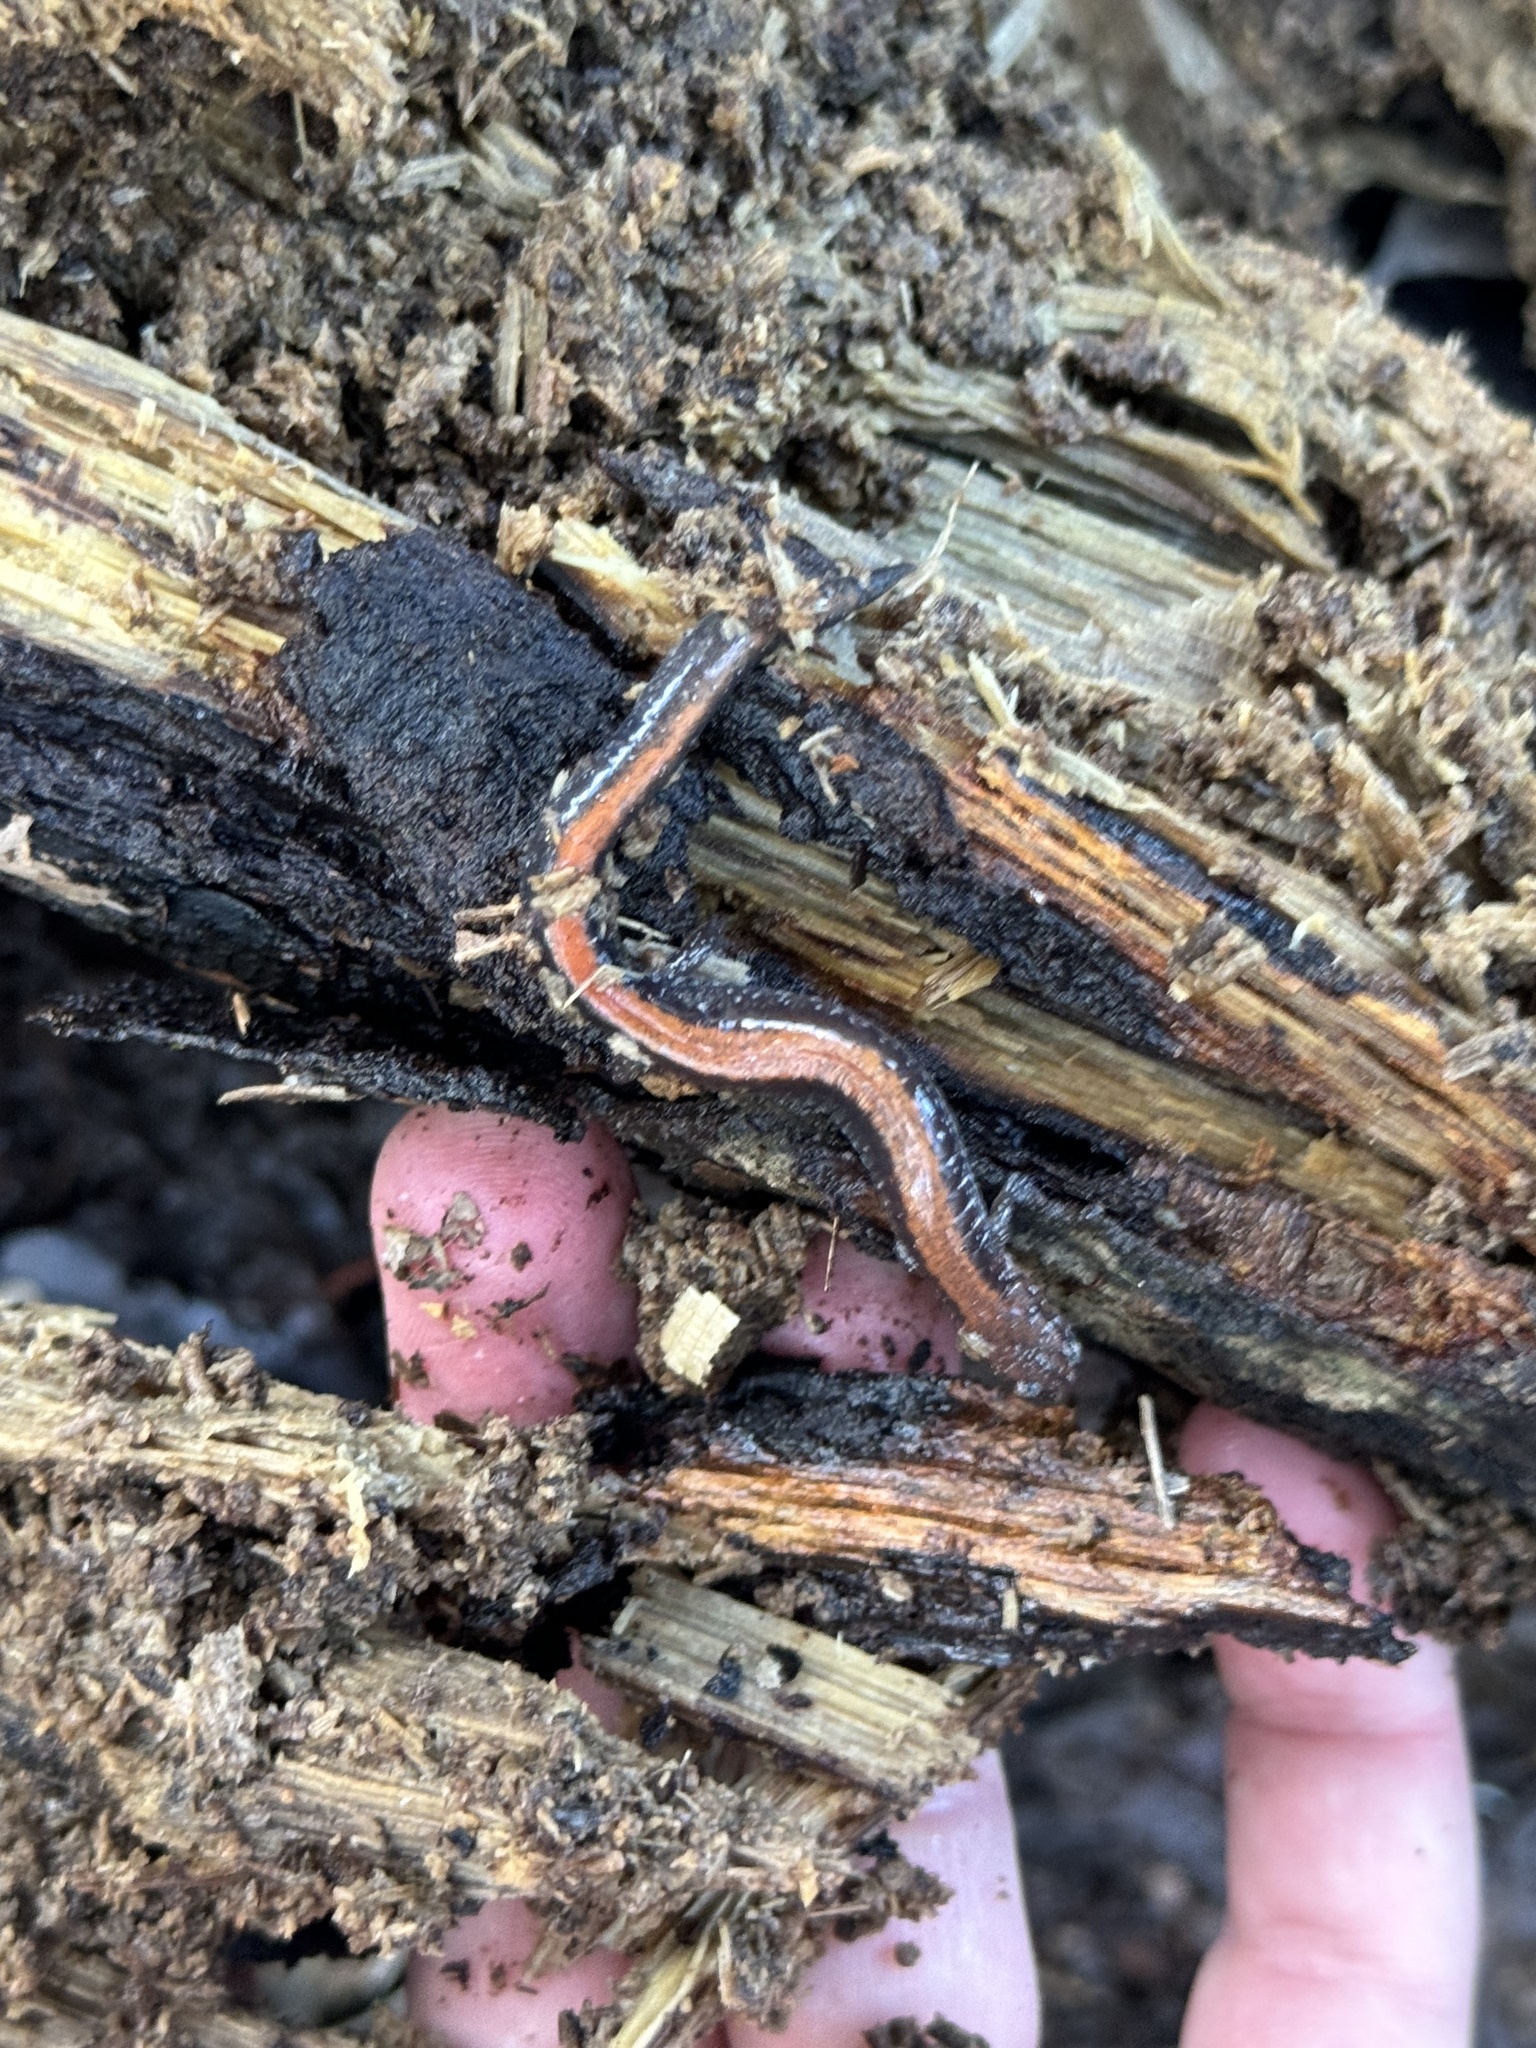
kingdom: Animalia
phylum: Chordata
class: Amphibia
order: Caudata
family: Plethodontidae
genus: Plethodon
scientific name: Plethodon cinereus
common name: Redback salamander
